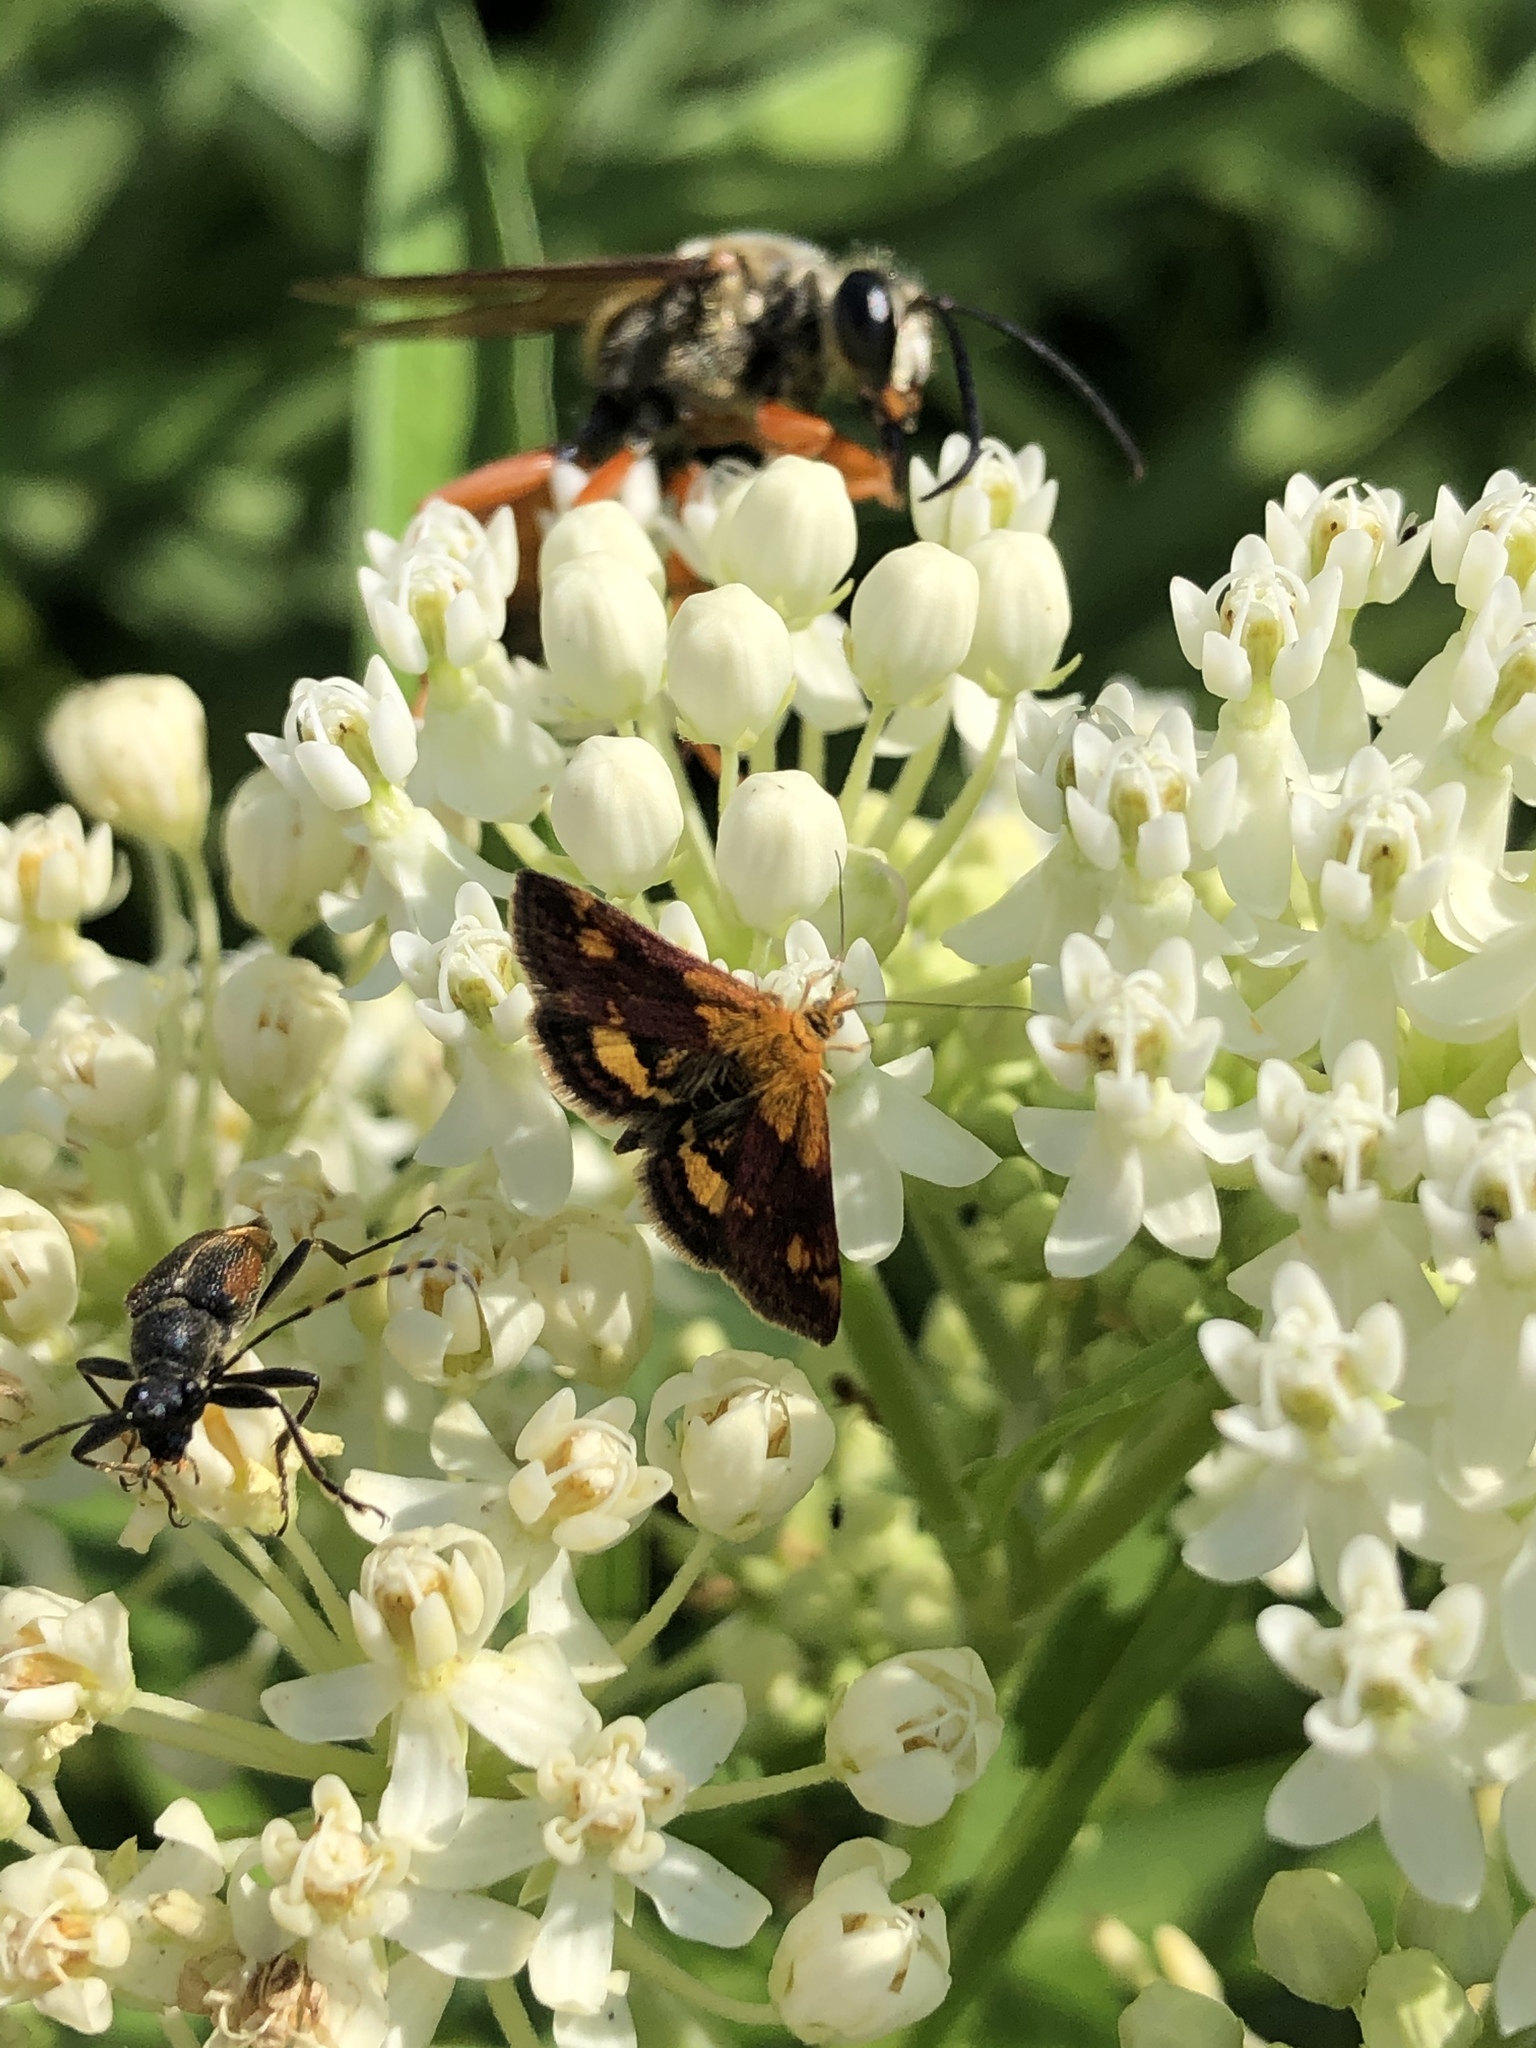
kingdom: Animalia
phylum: Arthropoda
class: Insecta
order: Lepidoptera
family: Crambidae
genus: Pyrausta
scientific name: Pyrausta orphisalis
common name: Orange mint moth
